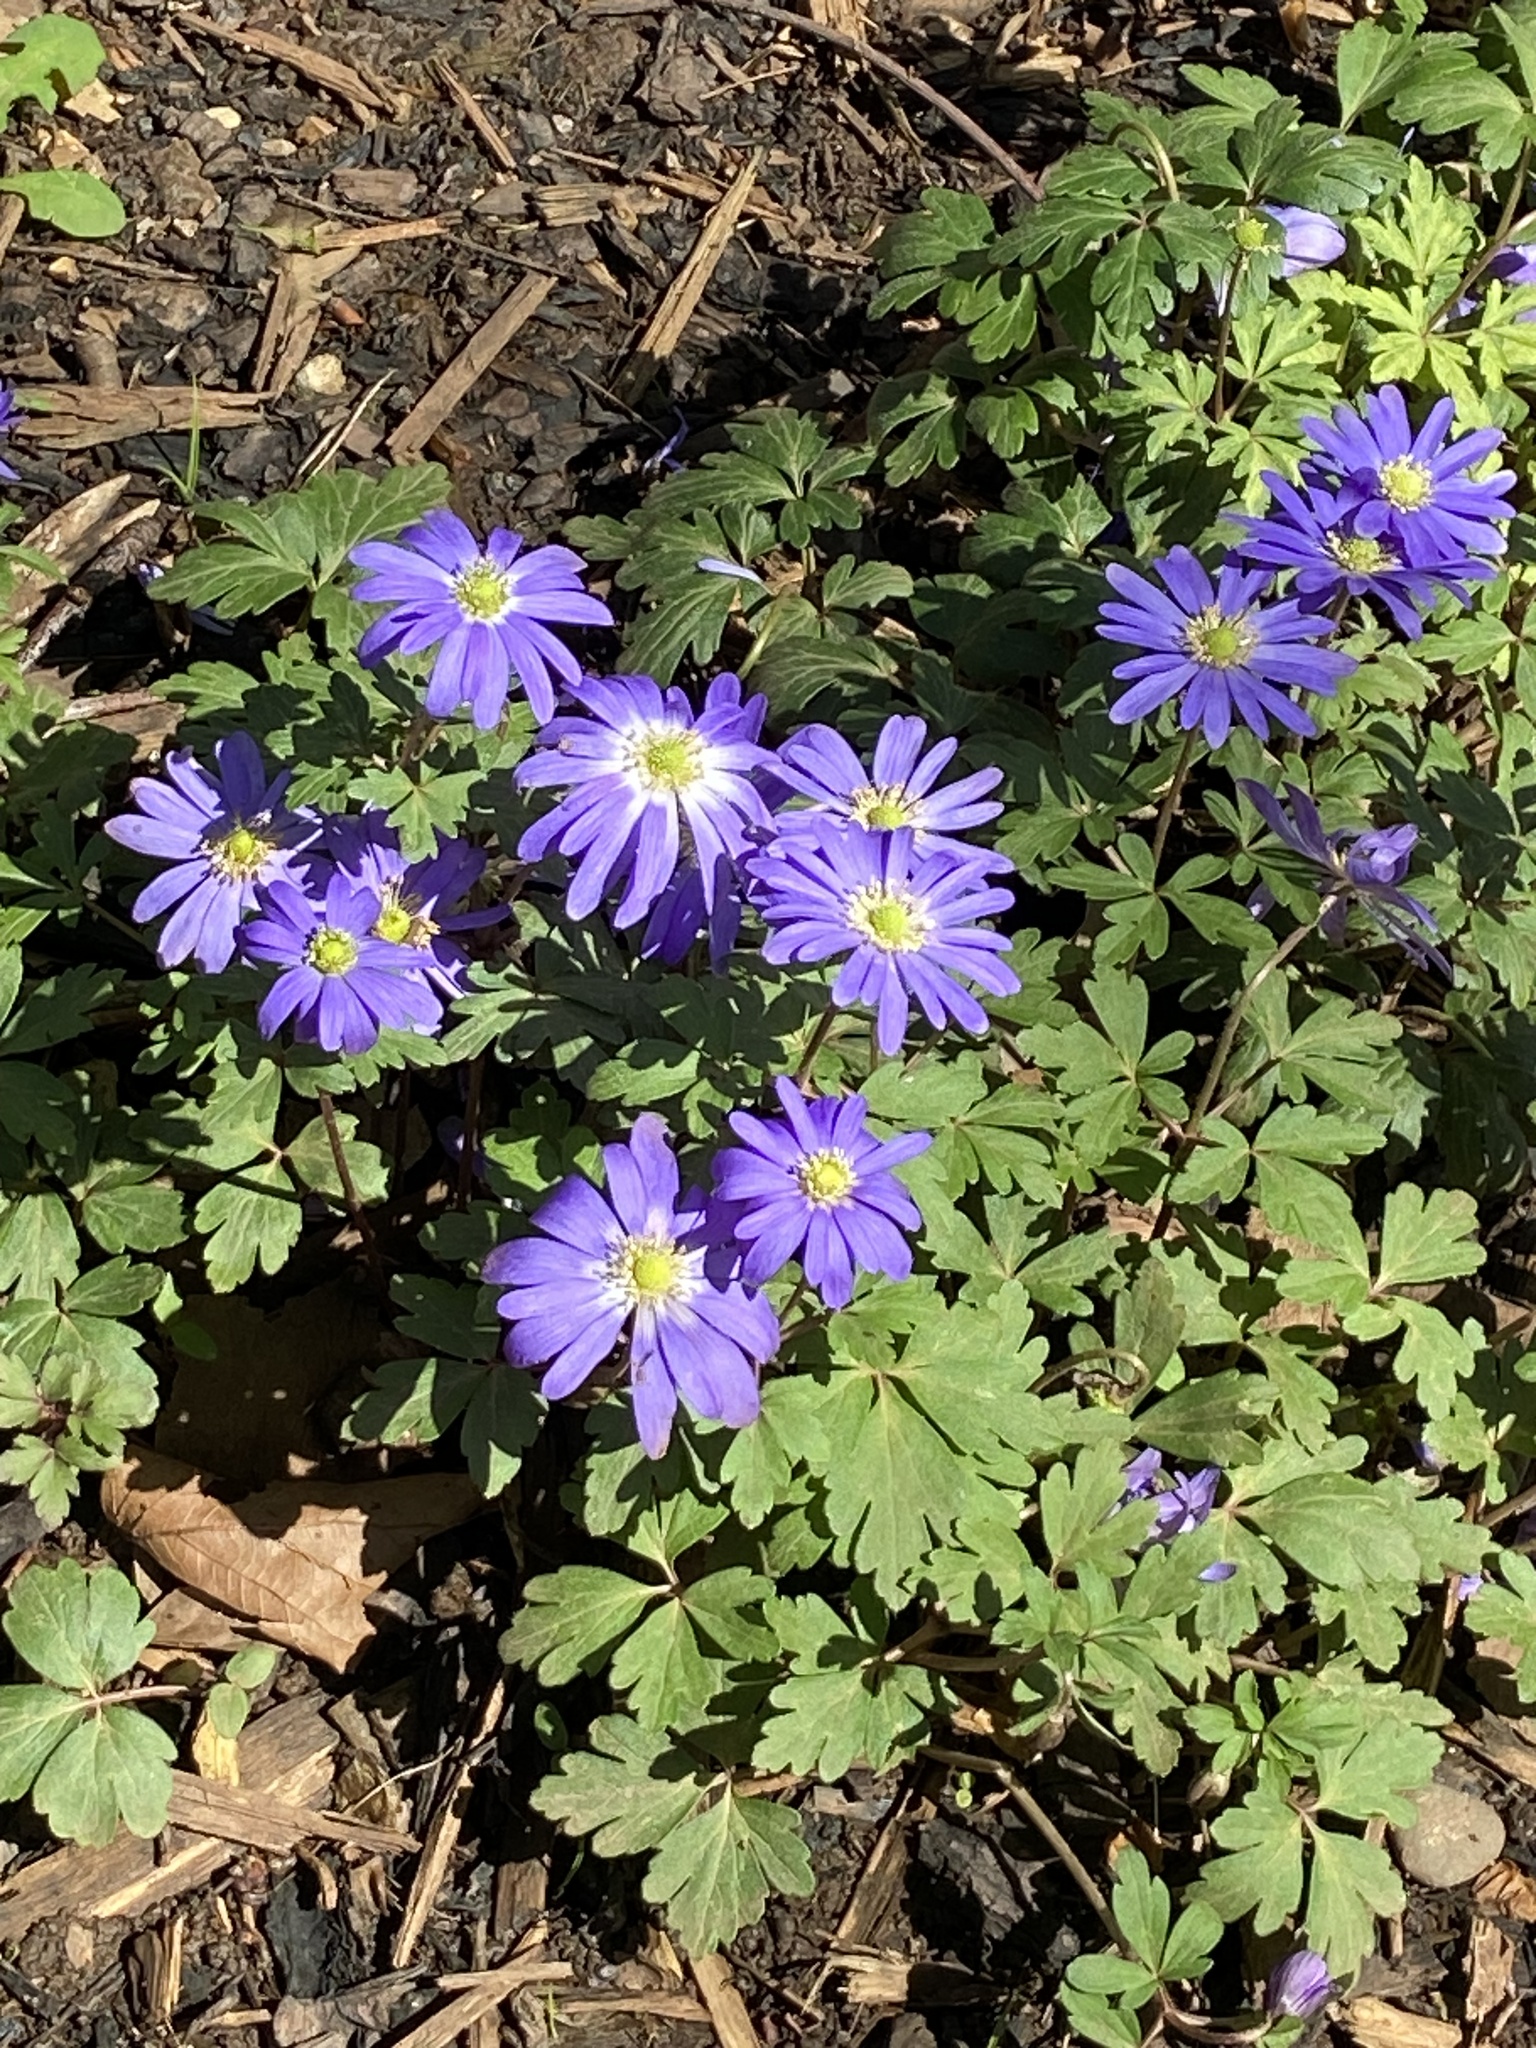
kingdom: Plantae
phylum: Tracheophyta
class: Magnoliopsida
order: Ranunculales
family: Ranunculaceae
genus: Anemone
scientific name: Anemone blanda
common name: Balkan anemone
